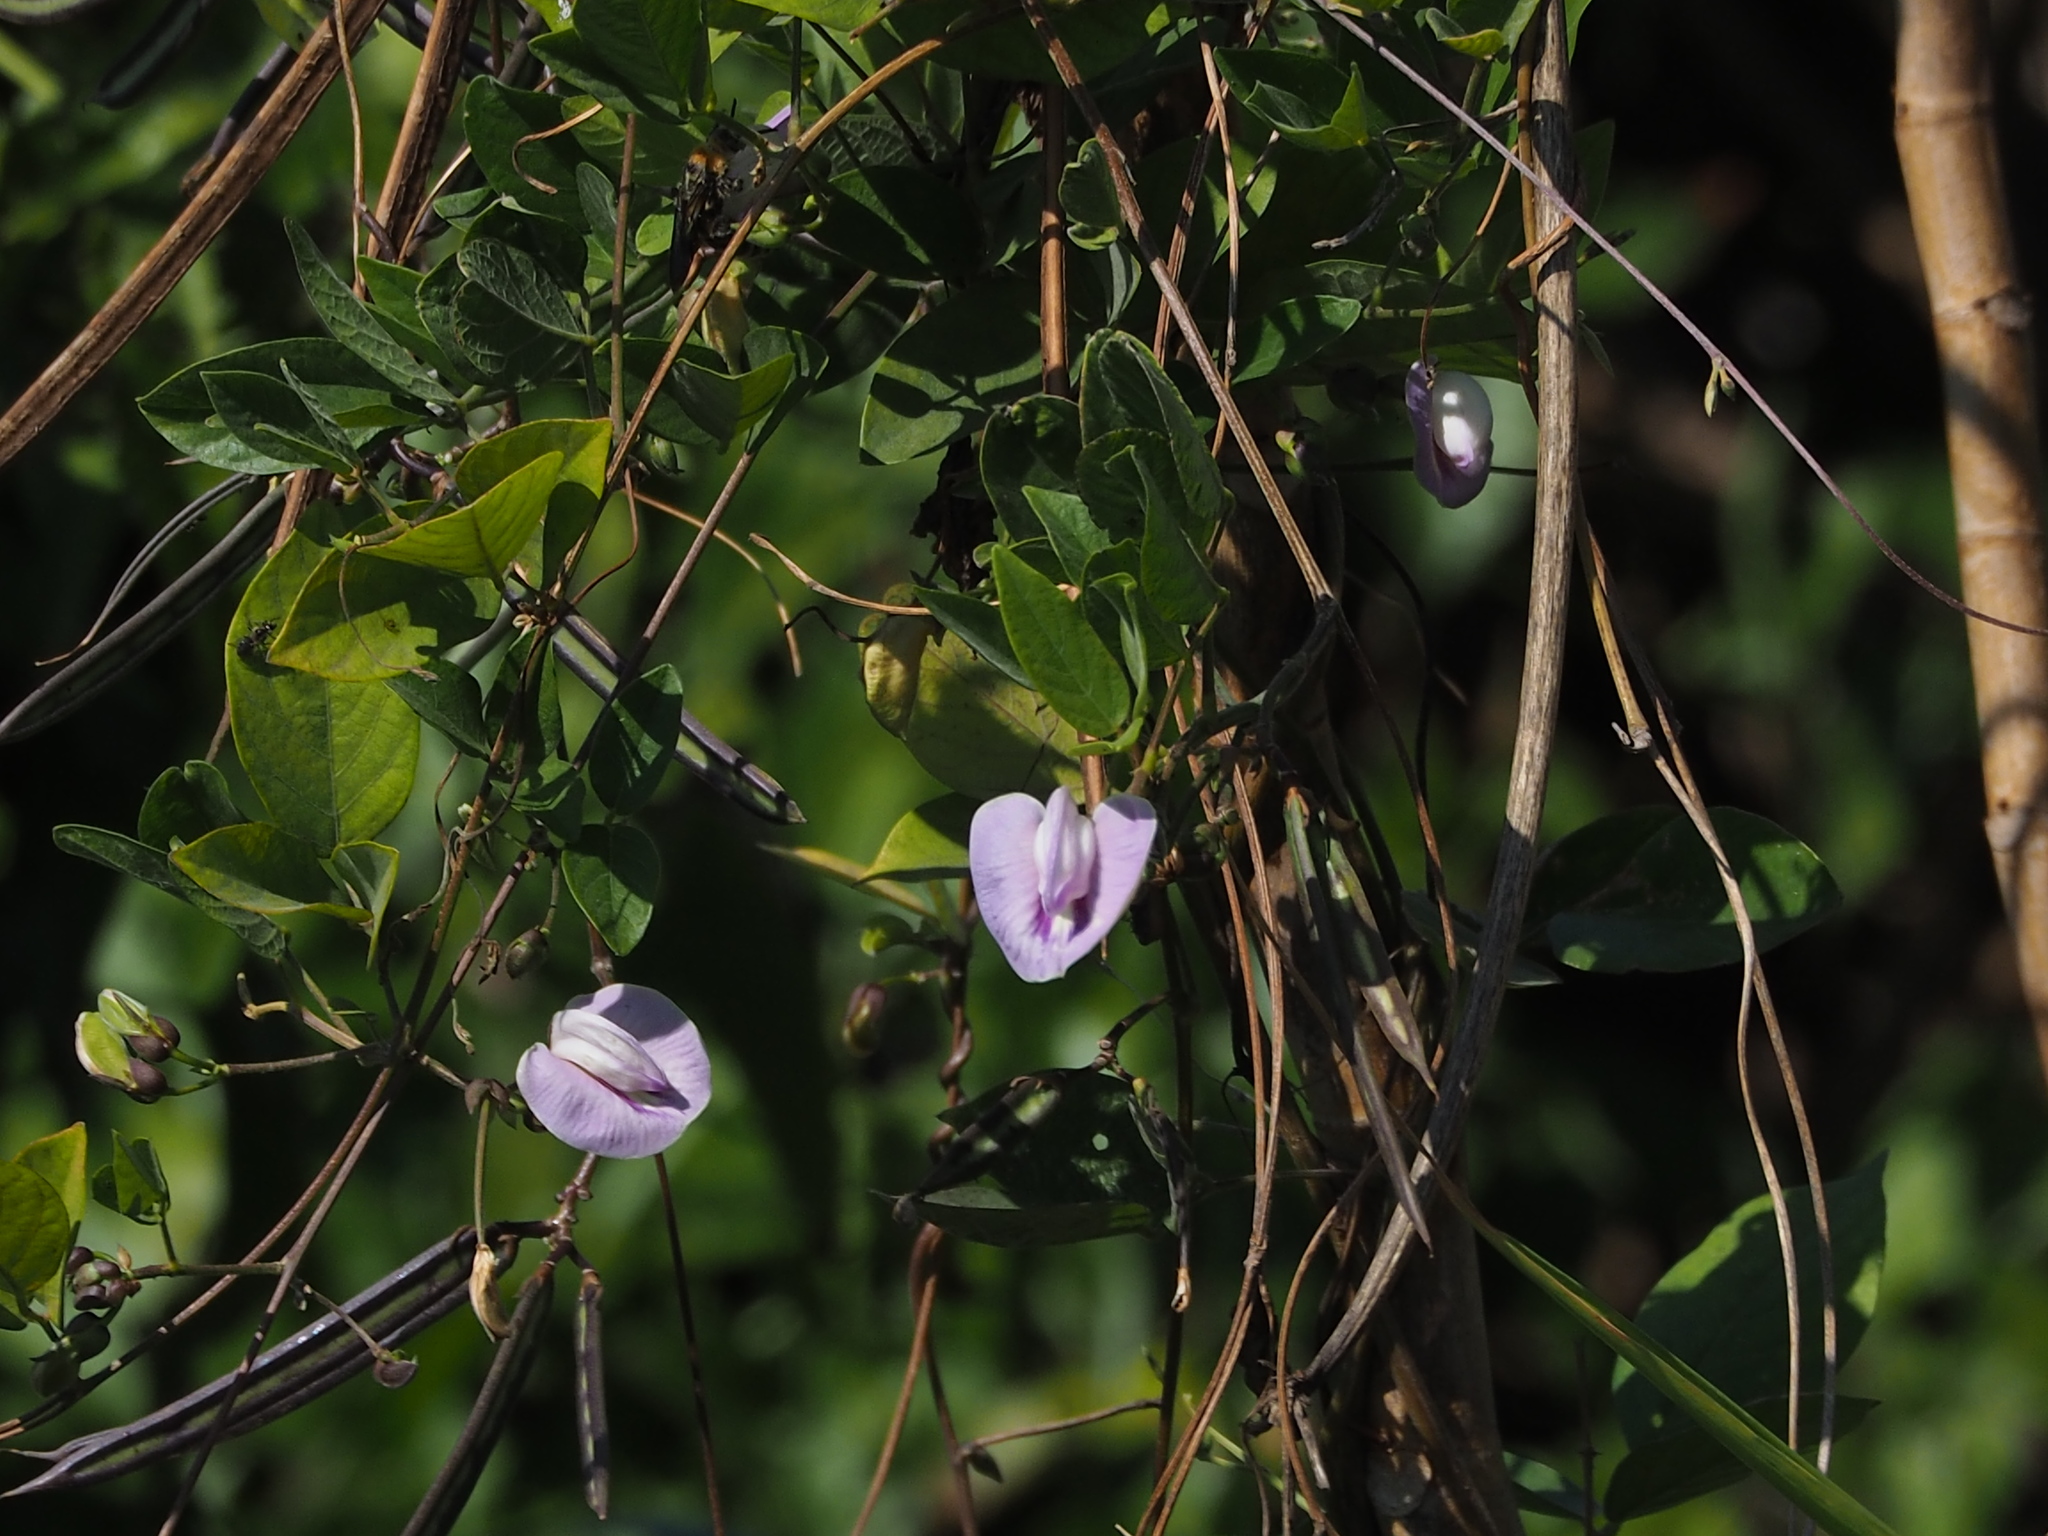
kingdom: Plantae
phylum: Tracheophyta
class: Magnoliopsida
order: Fabales
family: Fabaceae
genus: Centrosema
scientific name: Centrosema pubescens
